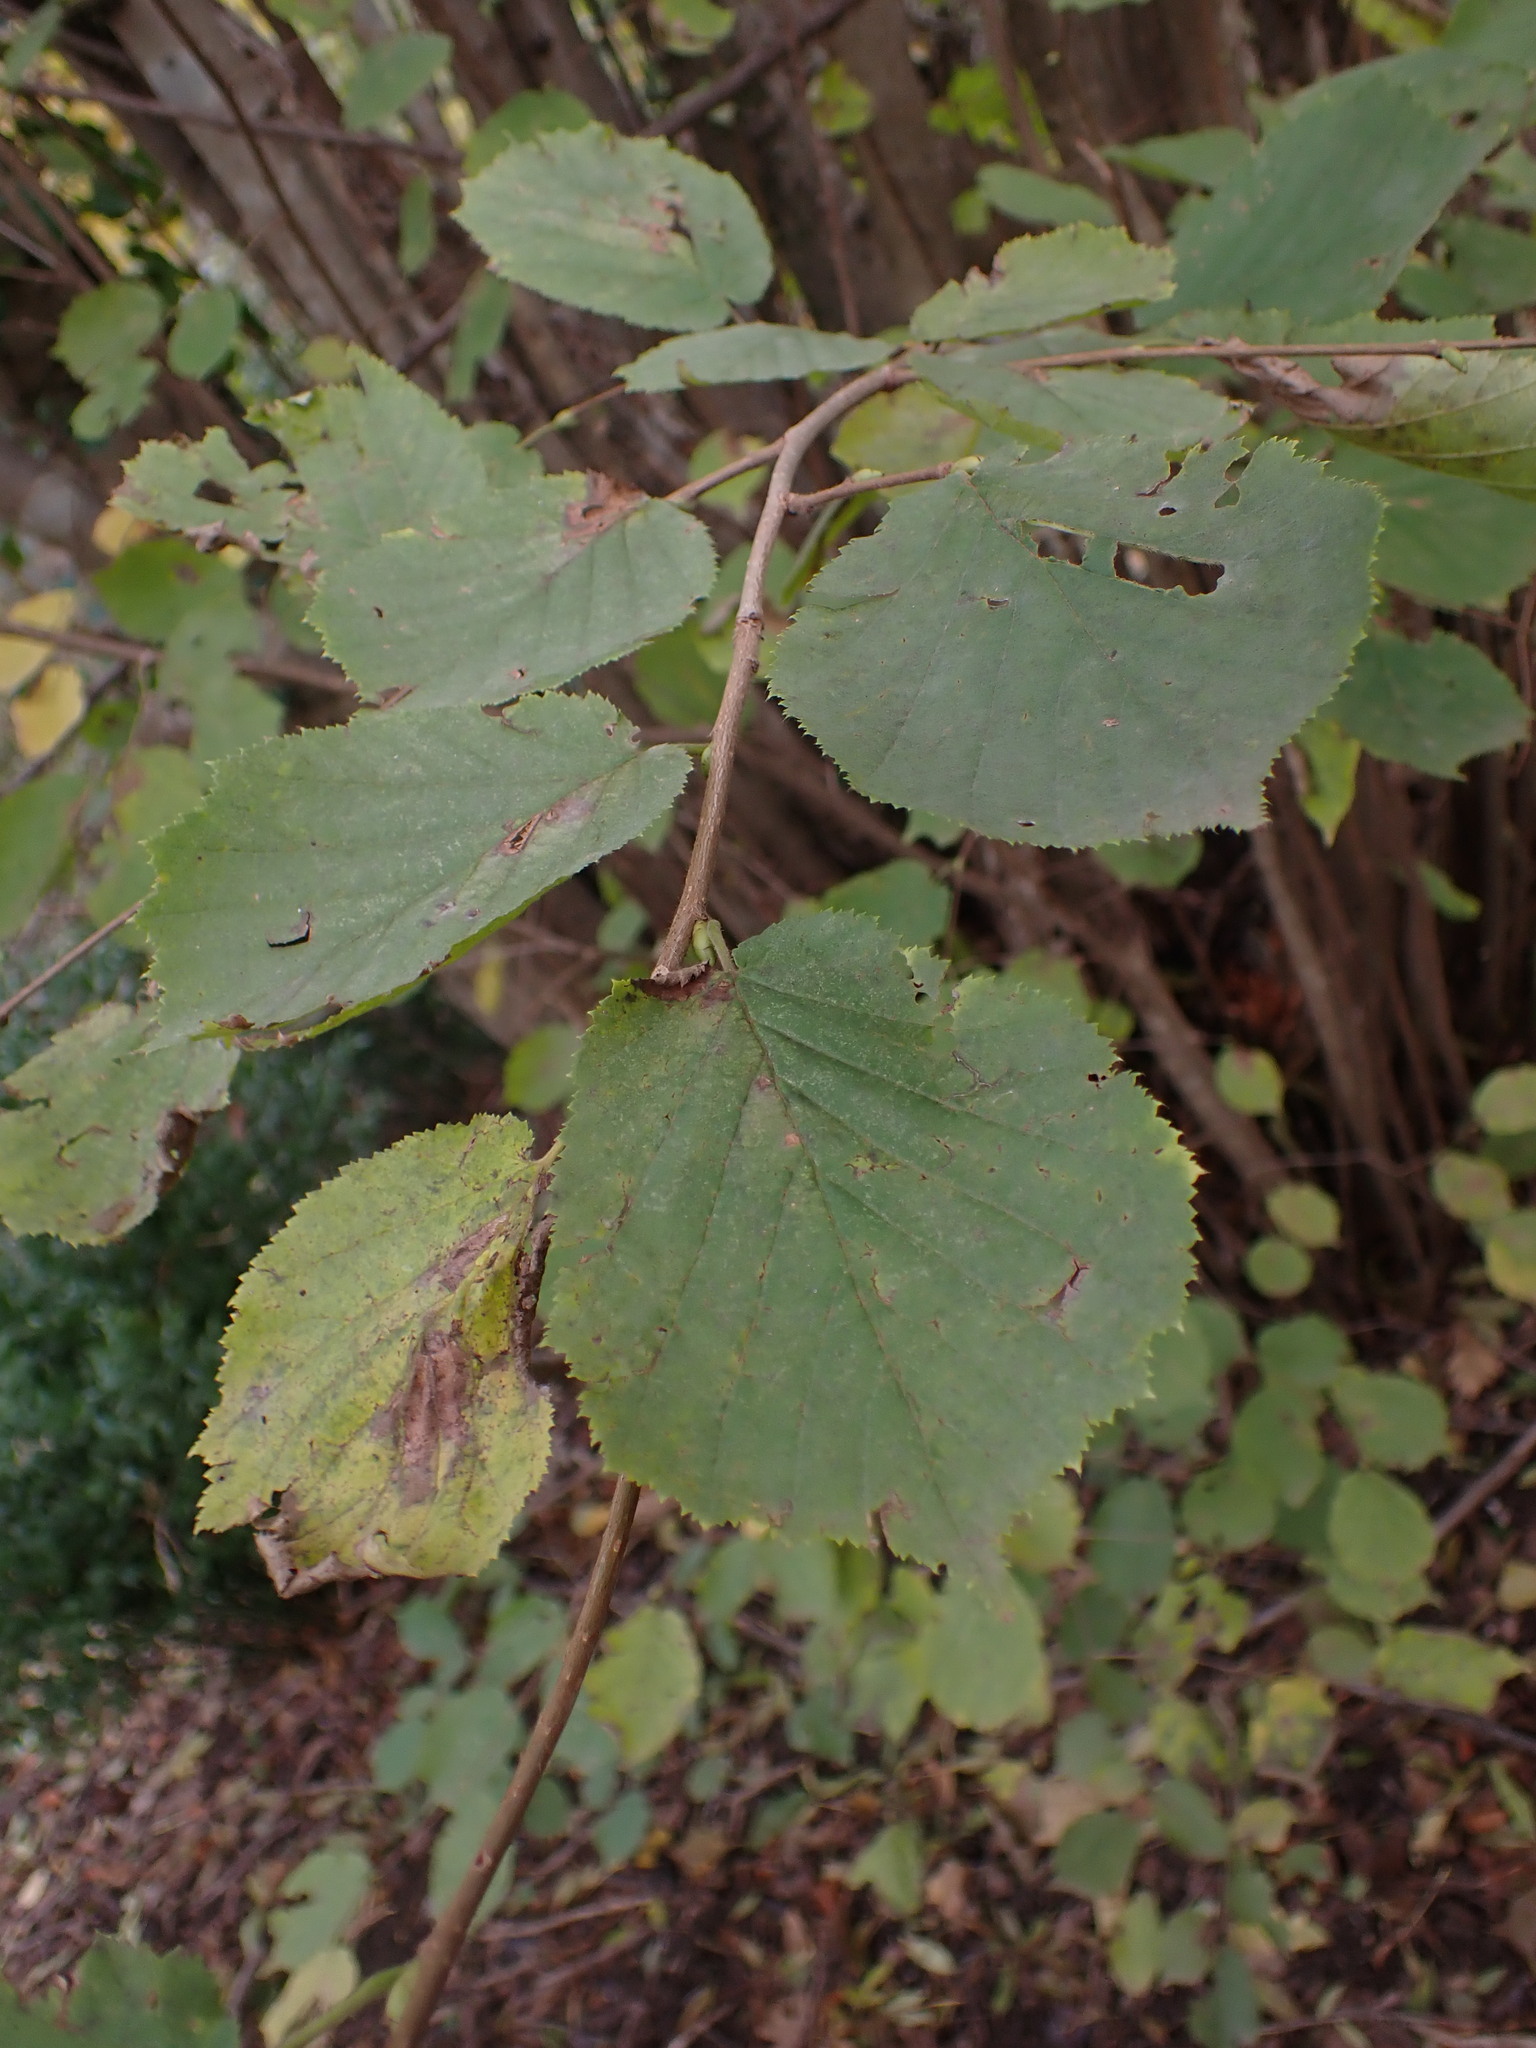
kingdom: Plantae
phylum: Tracheophyta
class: Magnoliopsida
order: Fagales
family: Betulaceae
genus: Corylus
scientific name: Corylus avellana
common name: European hazel
